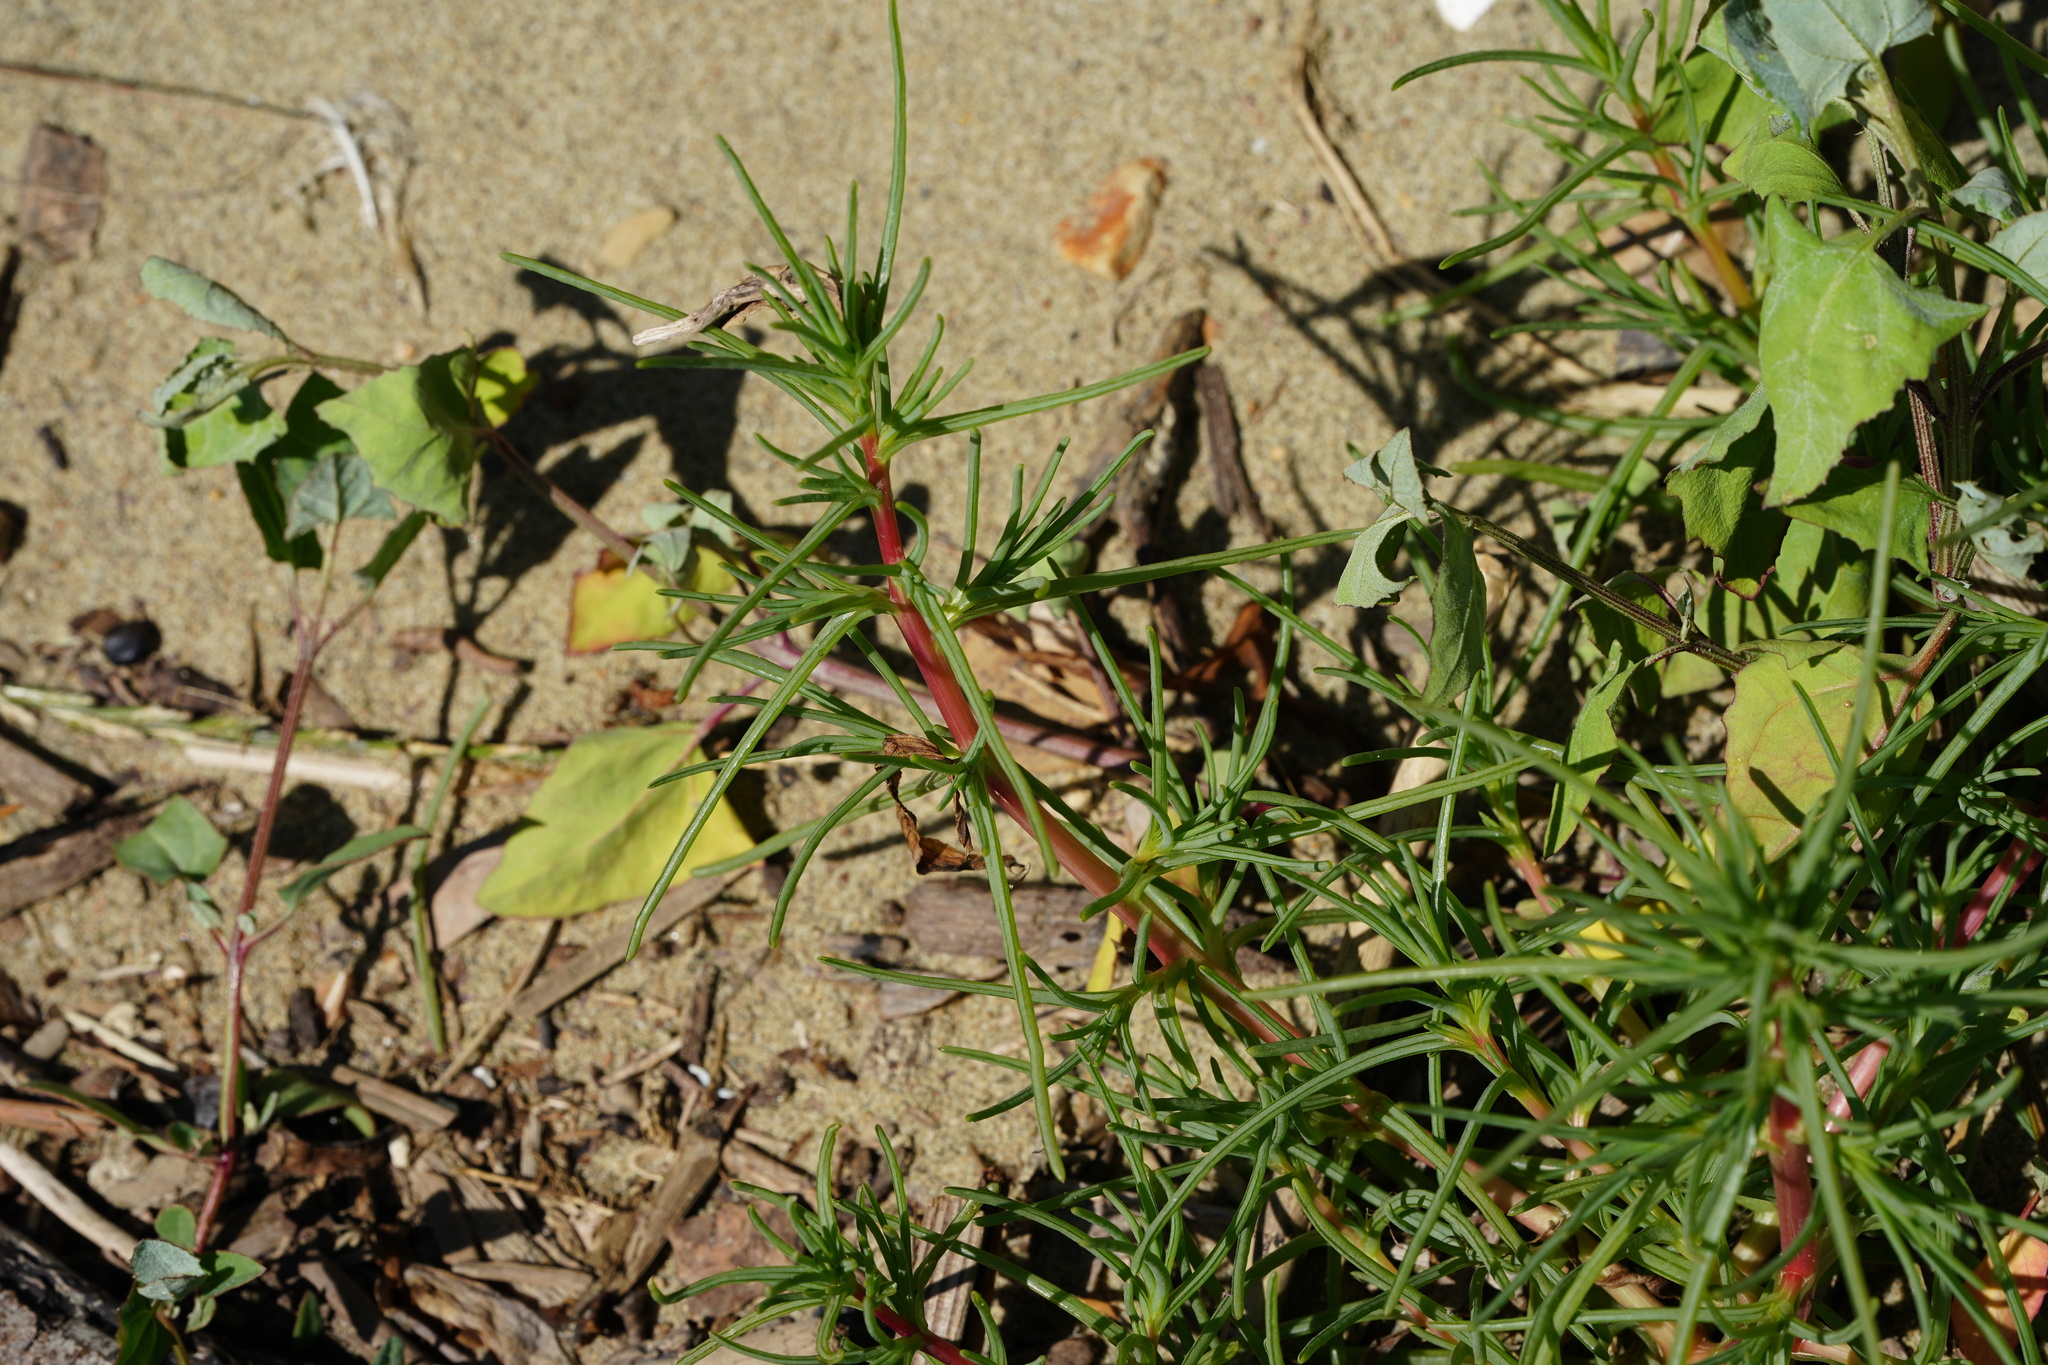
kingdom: Plantae
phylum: Tracheophyta
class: Magnoliopsida
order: Caryophyllales
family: Amaranthaceae
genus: Salsola
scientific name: Salsola soda
